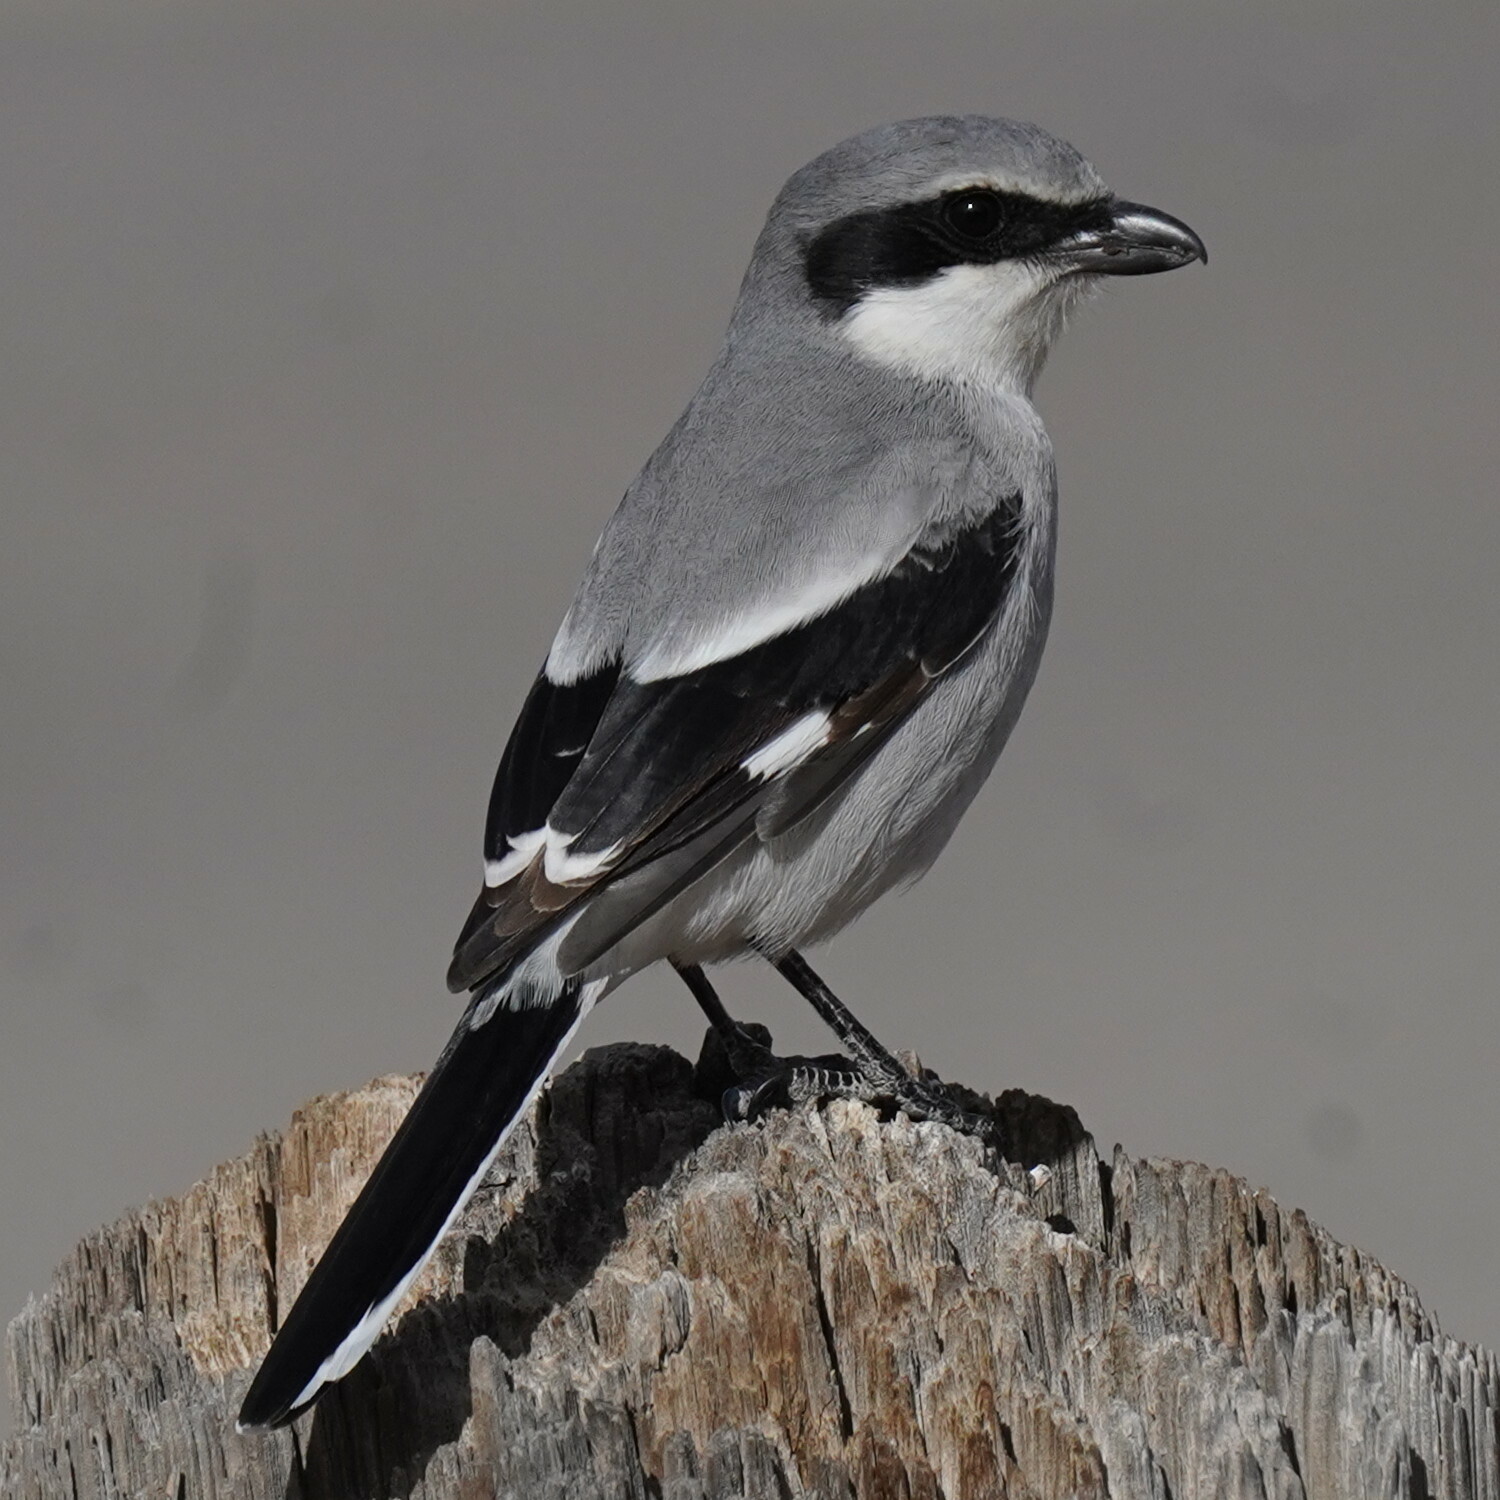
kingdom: Animalia
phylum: Chordata
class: Aves
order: Passeriformes
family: Laniidae
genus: Lanius
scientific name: Lanius ludovicianus
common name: Loggerhead shrike
